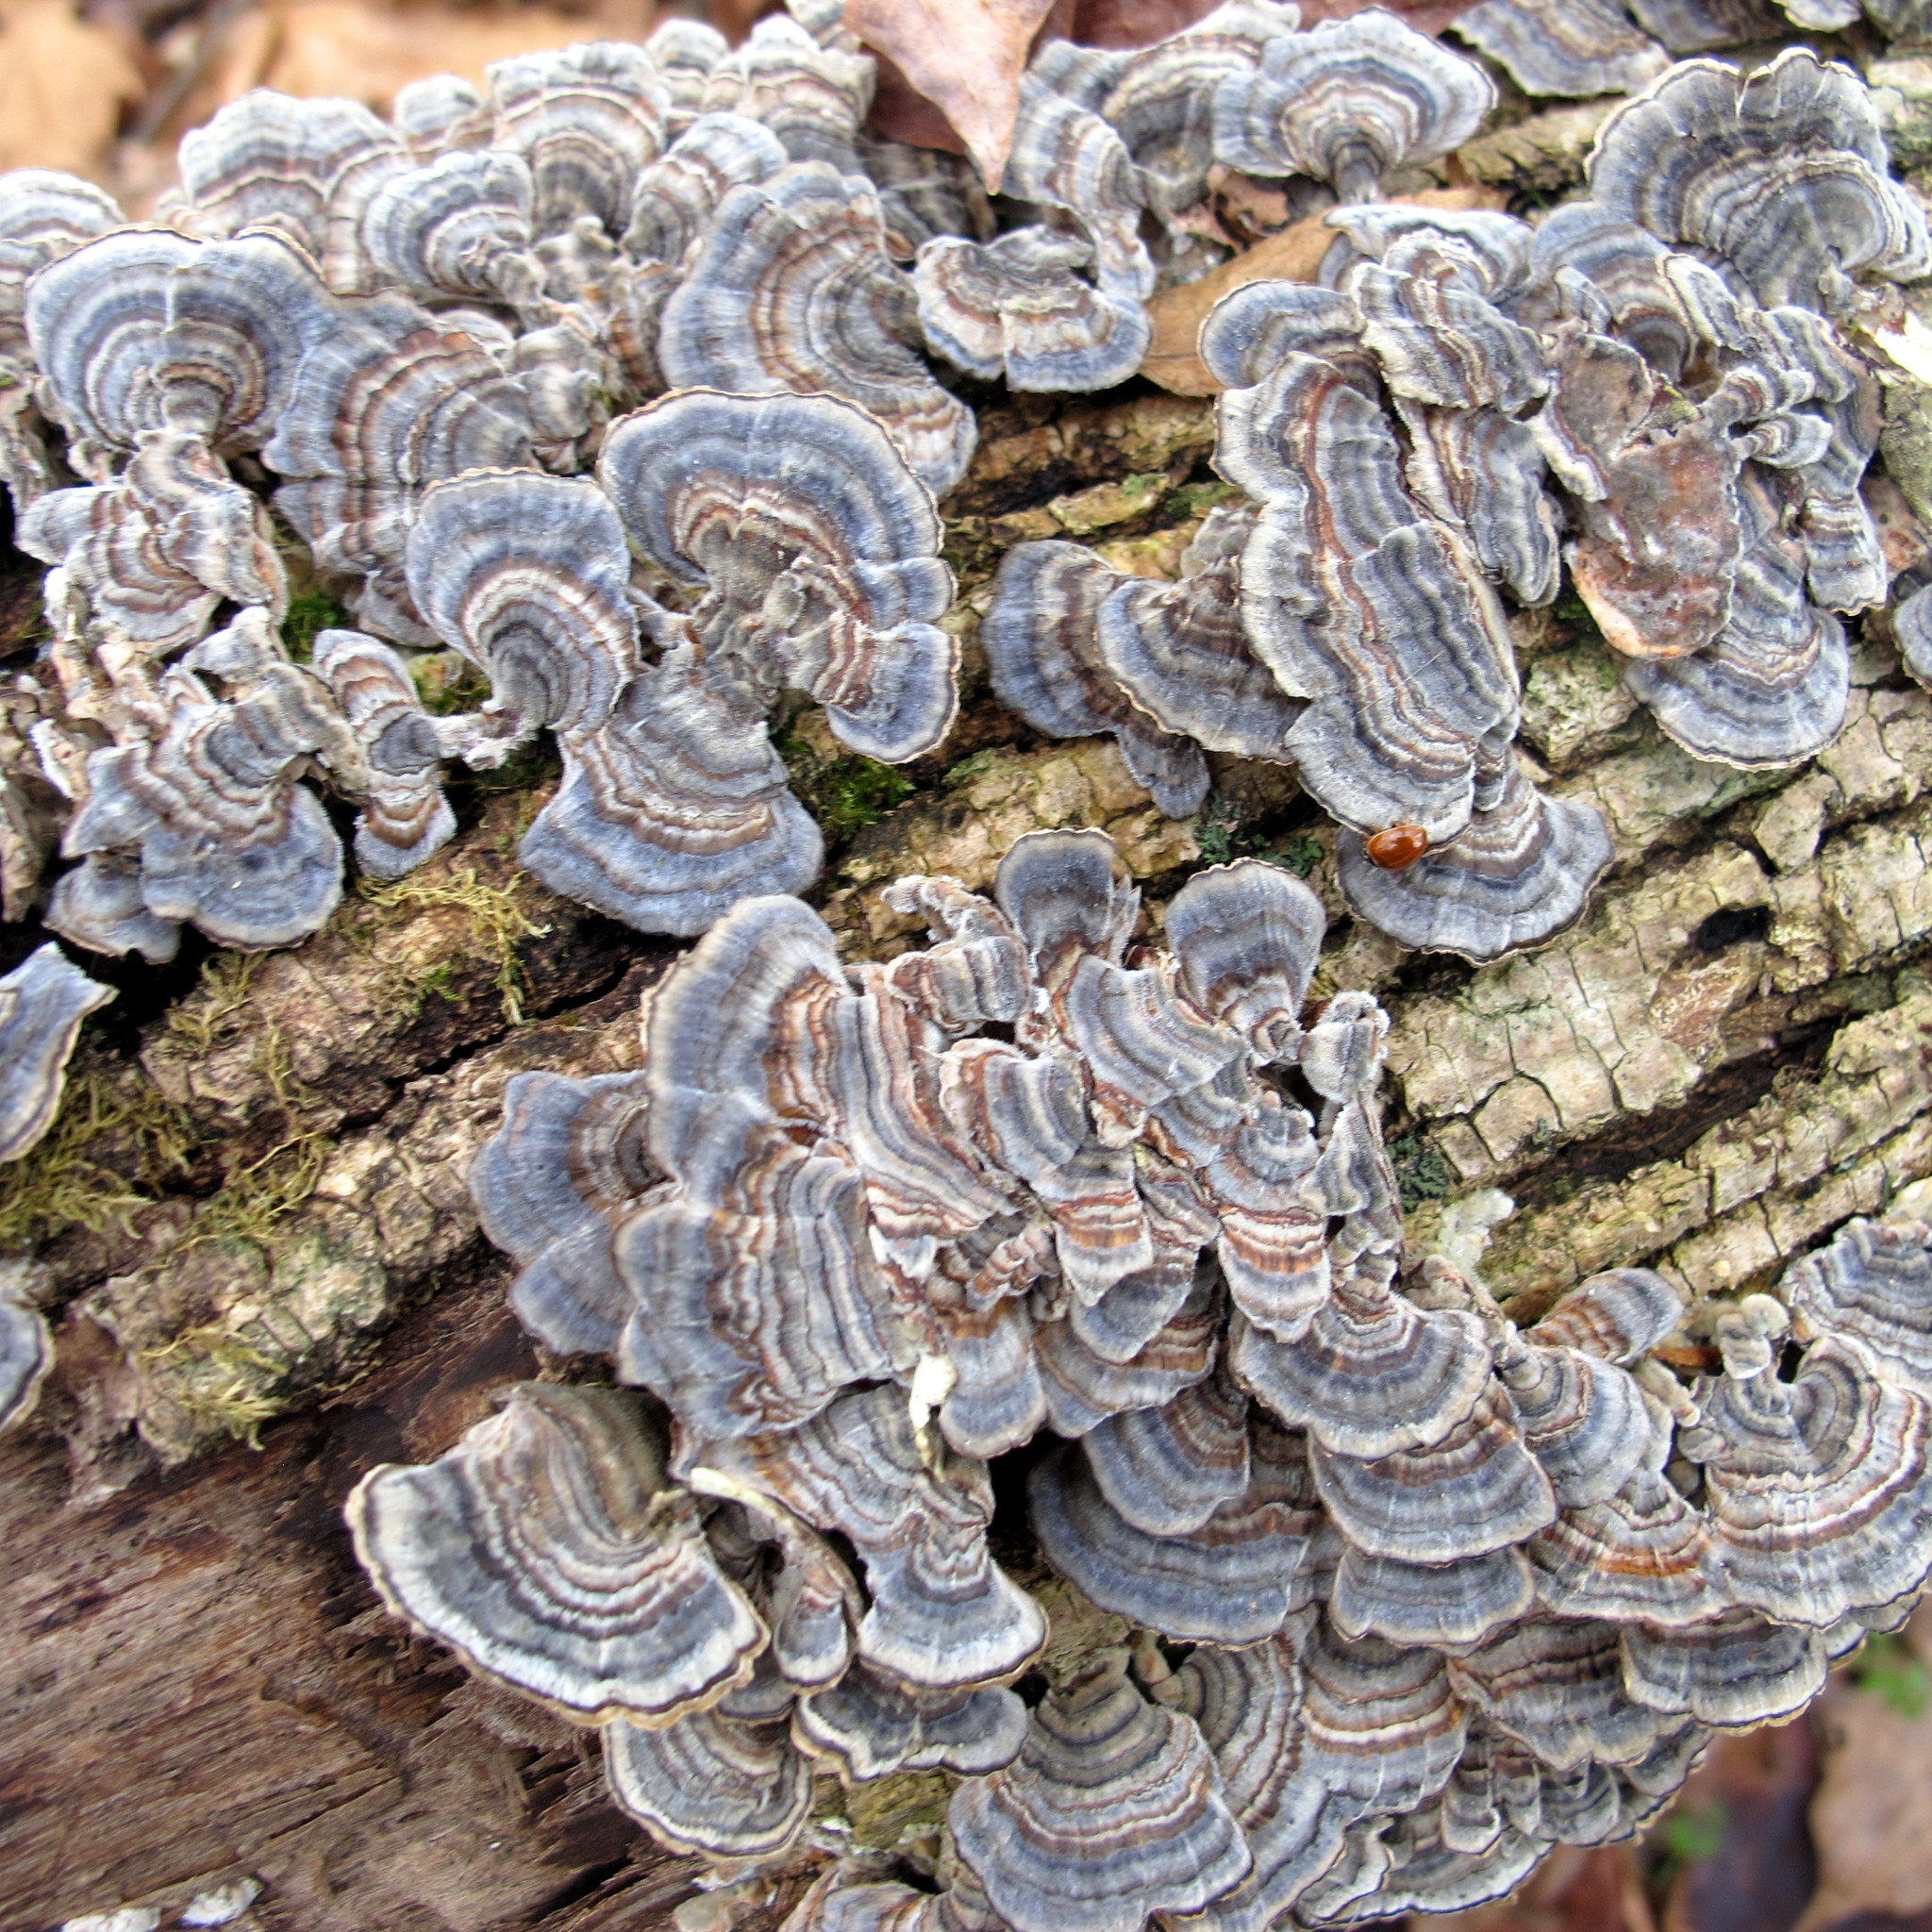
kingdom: Fungi
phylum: Basidiomycota
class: Agaricomycetes
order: Polyporales
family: Polyporaceae
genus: Trametes
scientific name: Trametes versicolor
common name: Turkeytail
